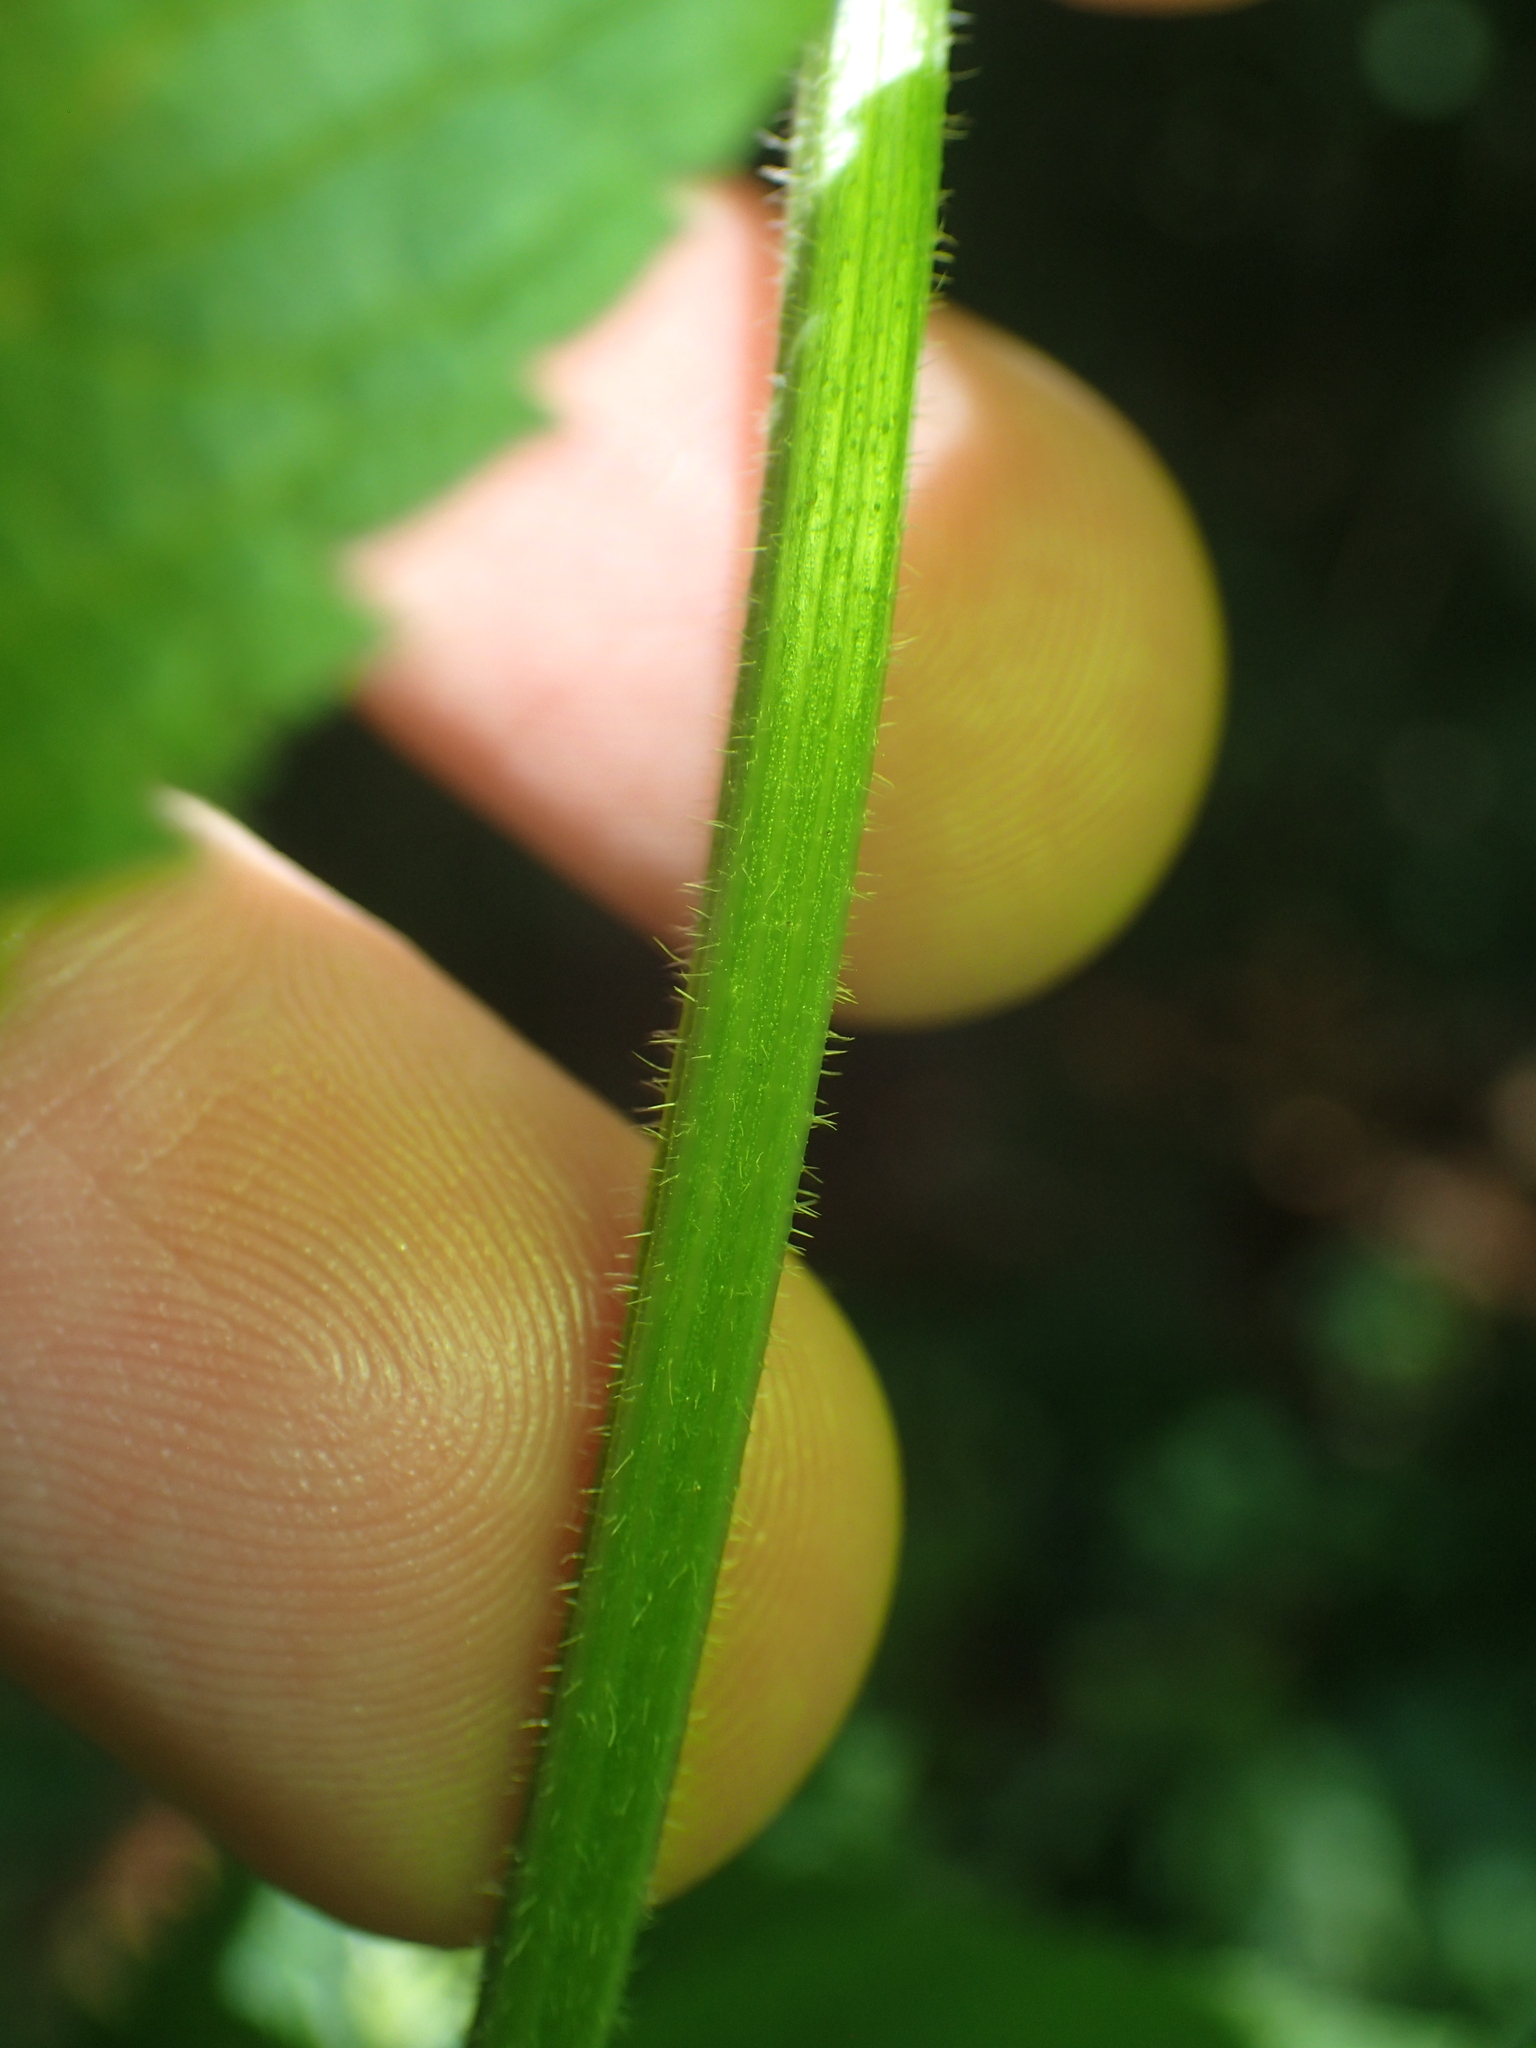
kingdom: Plantae
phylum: Tracheophyta
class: Magnoliopsida
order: Lamiales
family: Verbenaceae
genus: Verbena
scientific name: Verbena urticifolia
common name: Nettle-leaved vervain
